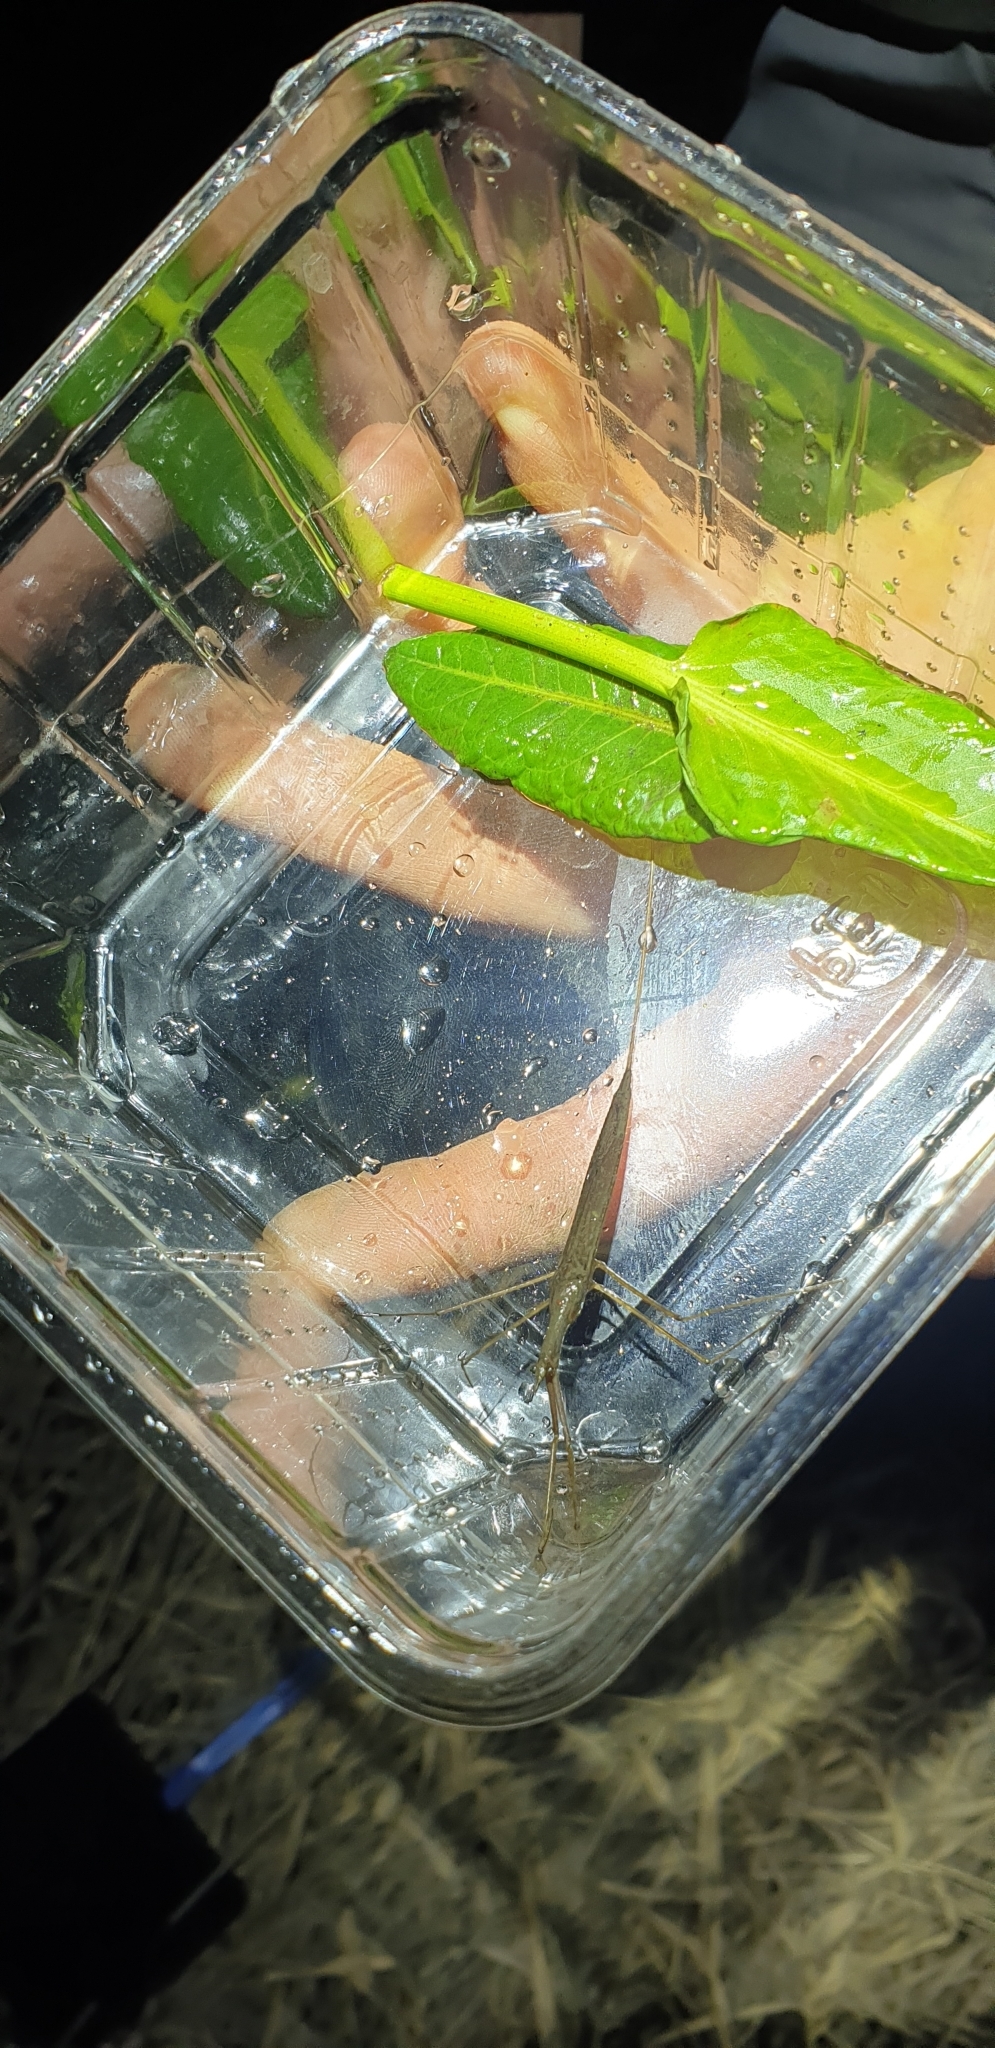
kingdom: Animalia
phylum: Arthropoda
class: Insecta
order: Hemiptera
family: Nepidae
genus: Ranatra
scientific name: Ranatra linearis
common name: Water stick insect
